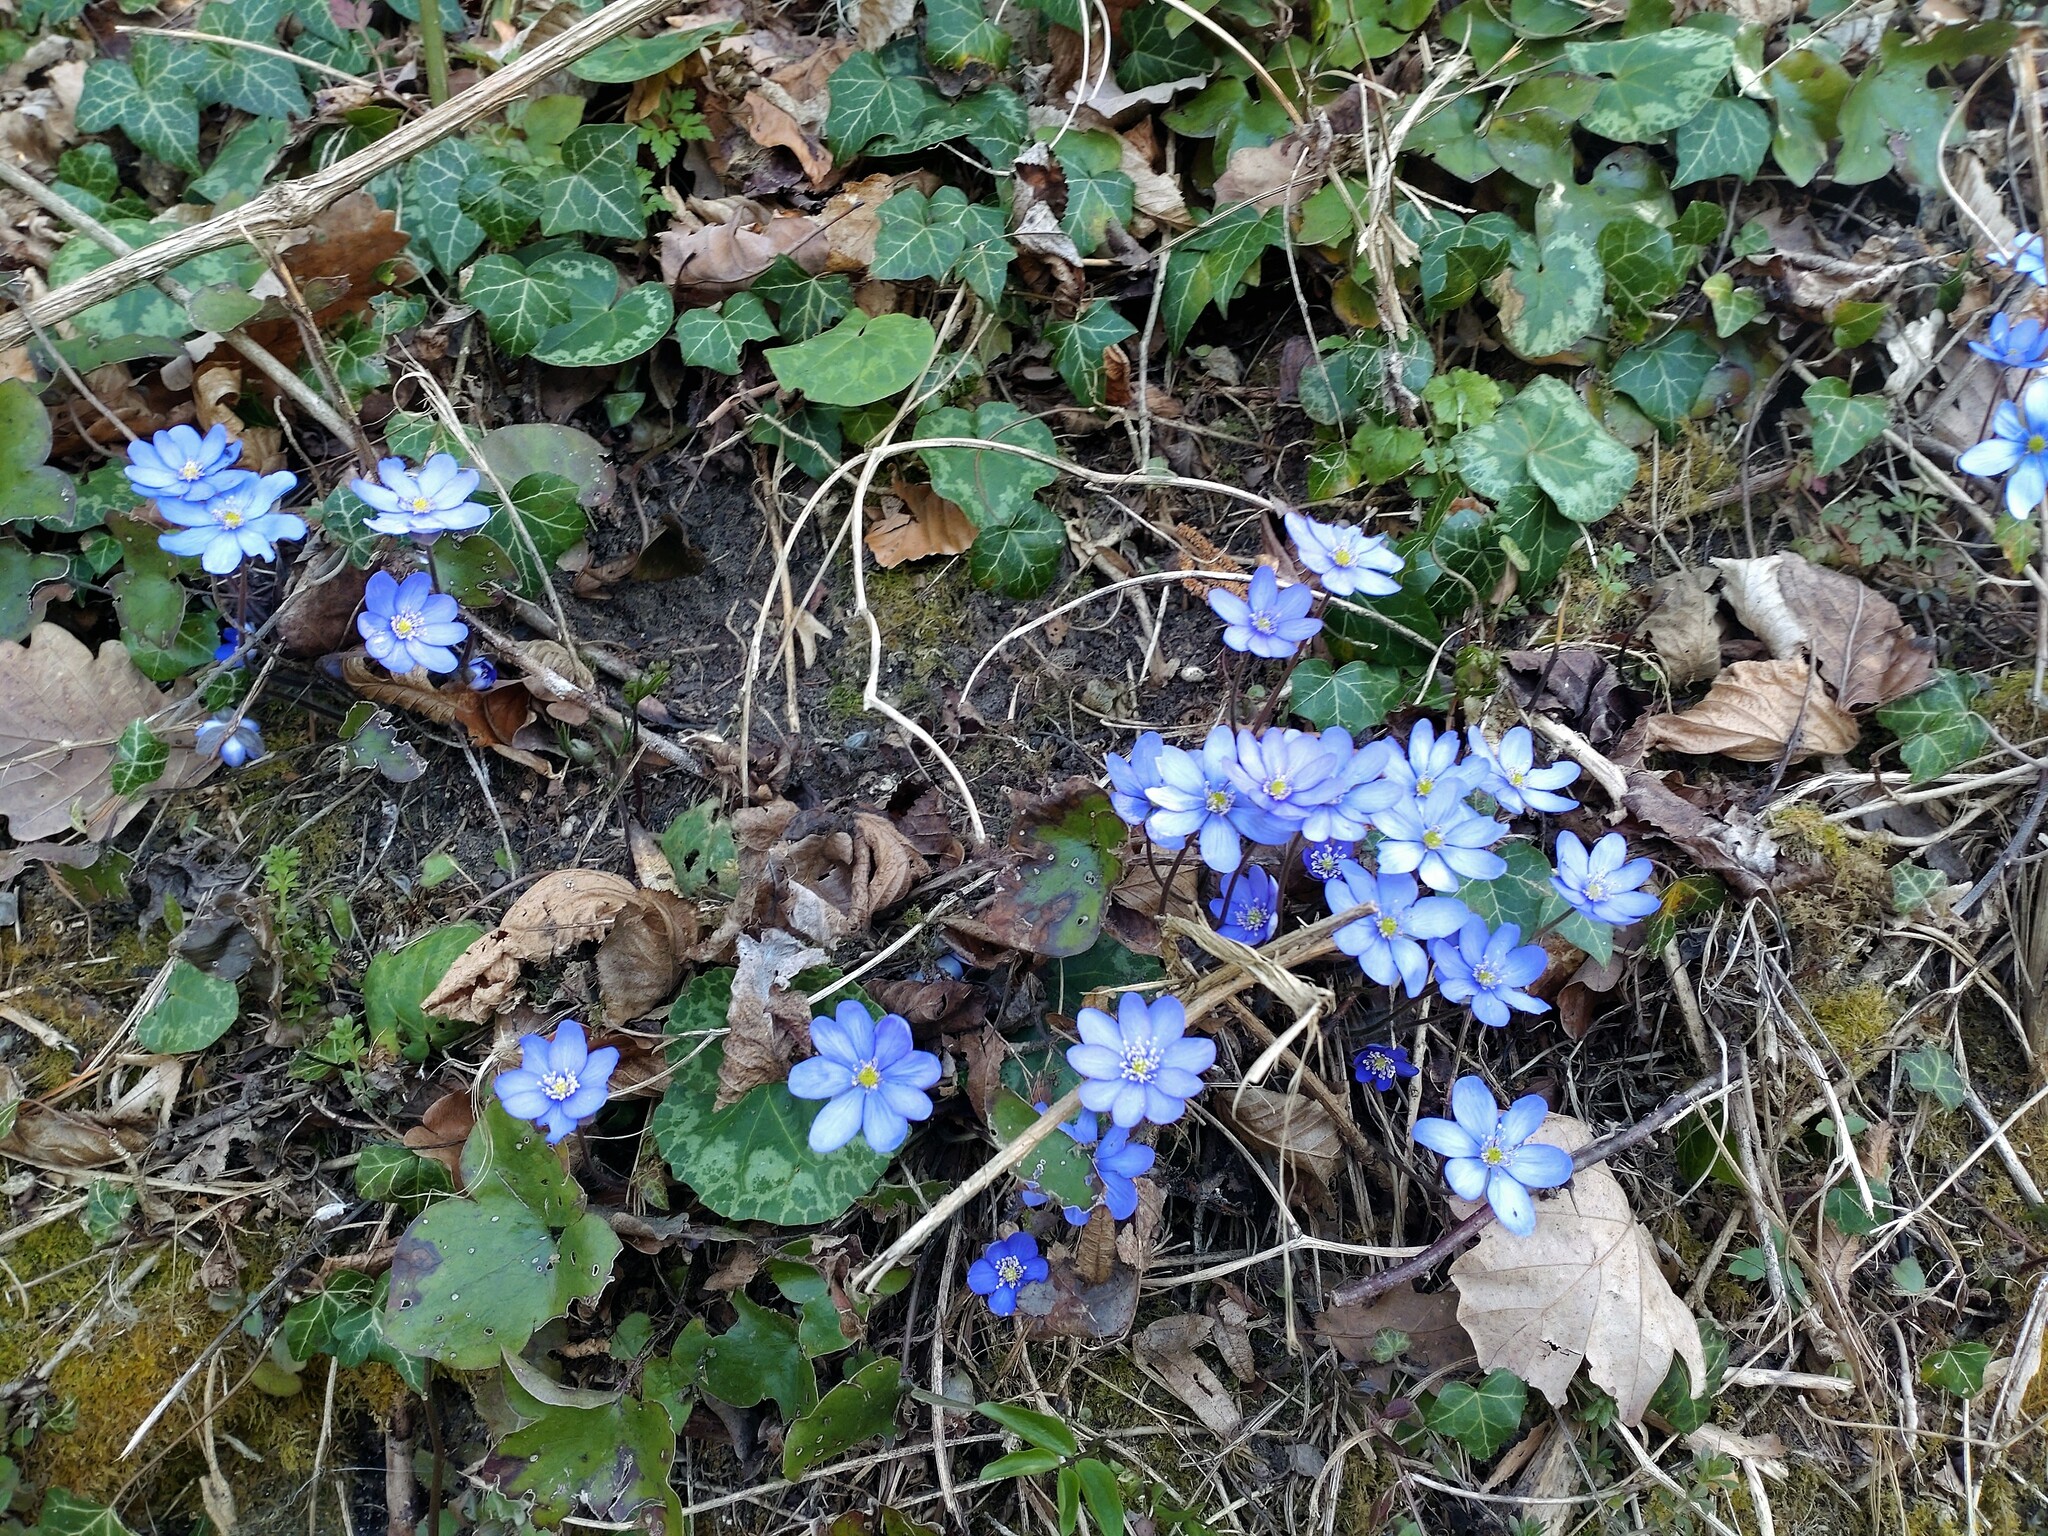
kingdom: Plantae
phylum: Tracheophyta
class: Magnoliopsida
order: Ranunculales
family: Ranunculaceae
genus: Hepatica
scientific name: Hepatica nobilis
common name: Liverleaf
